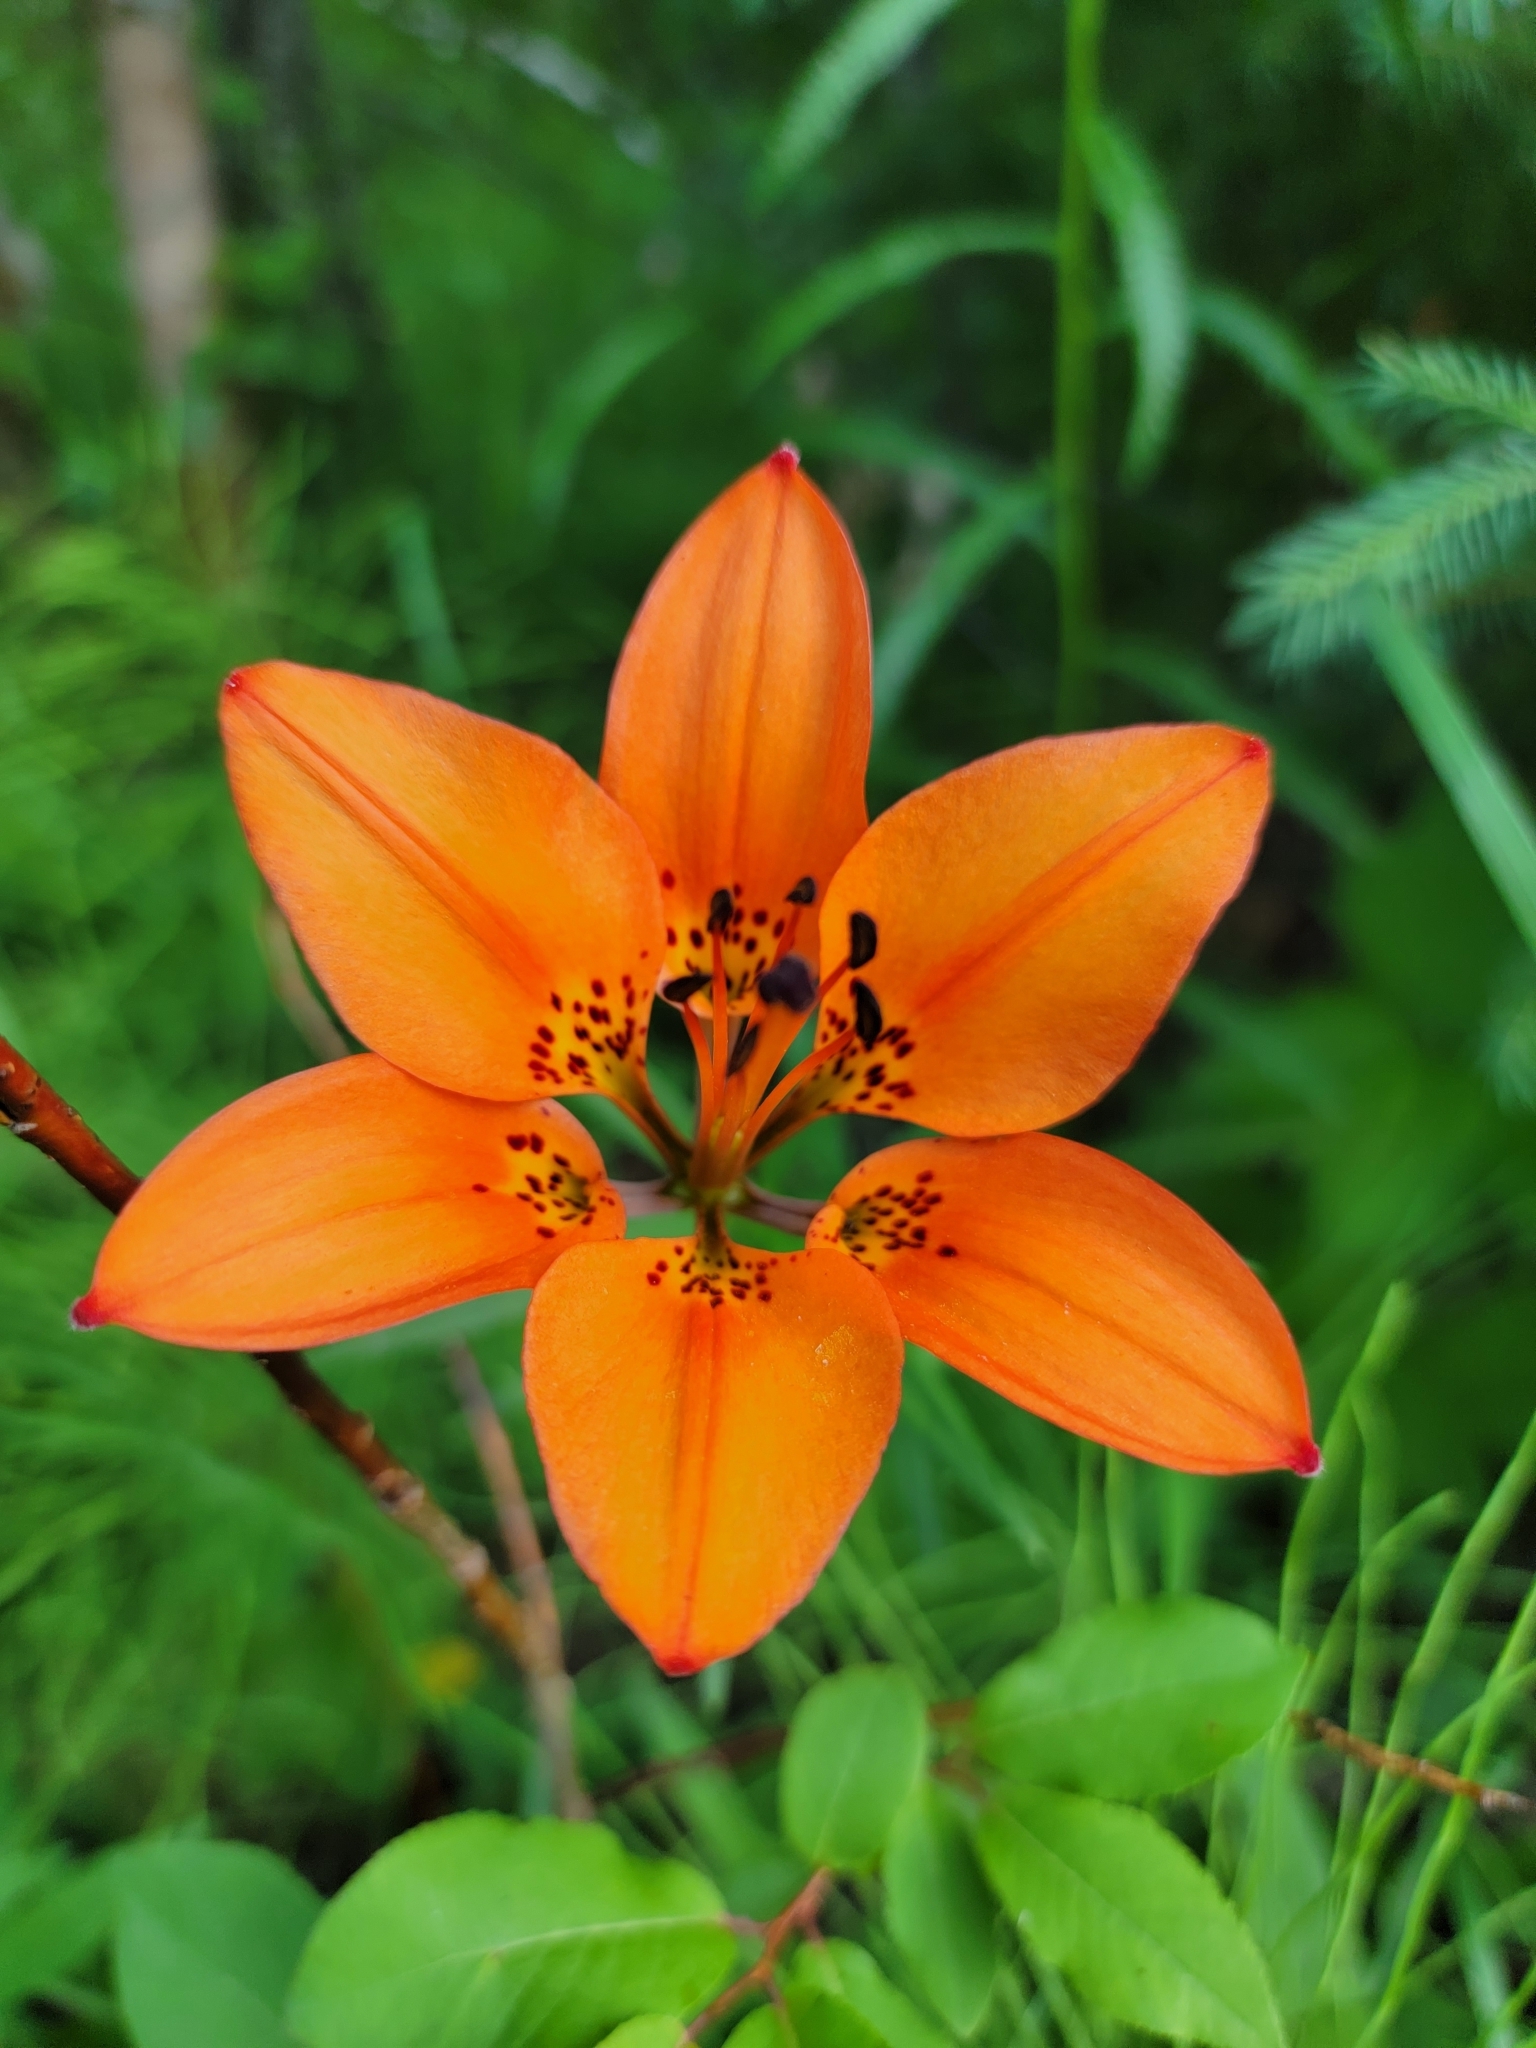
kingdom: Plantae
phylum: Tracheophyta
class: Liliopsida
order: Liliales
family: Liliaceae
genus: Lilium
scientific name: Lilium philadelphicum
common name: Red lily
